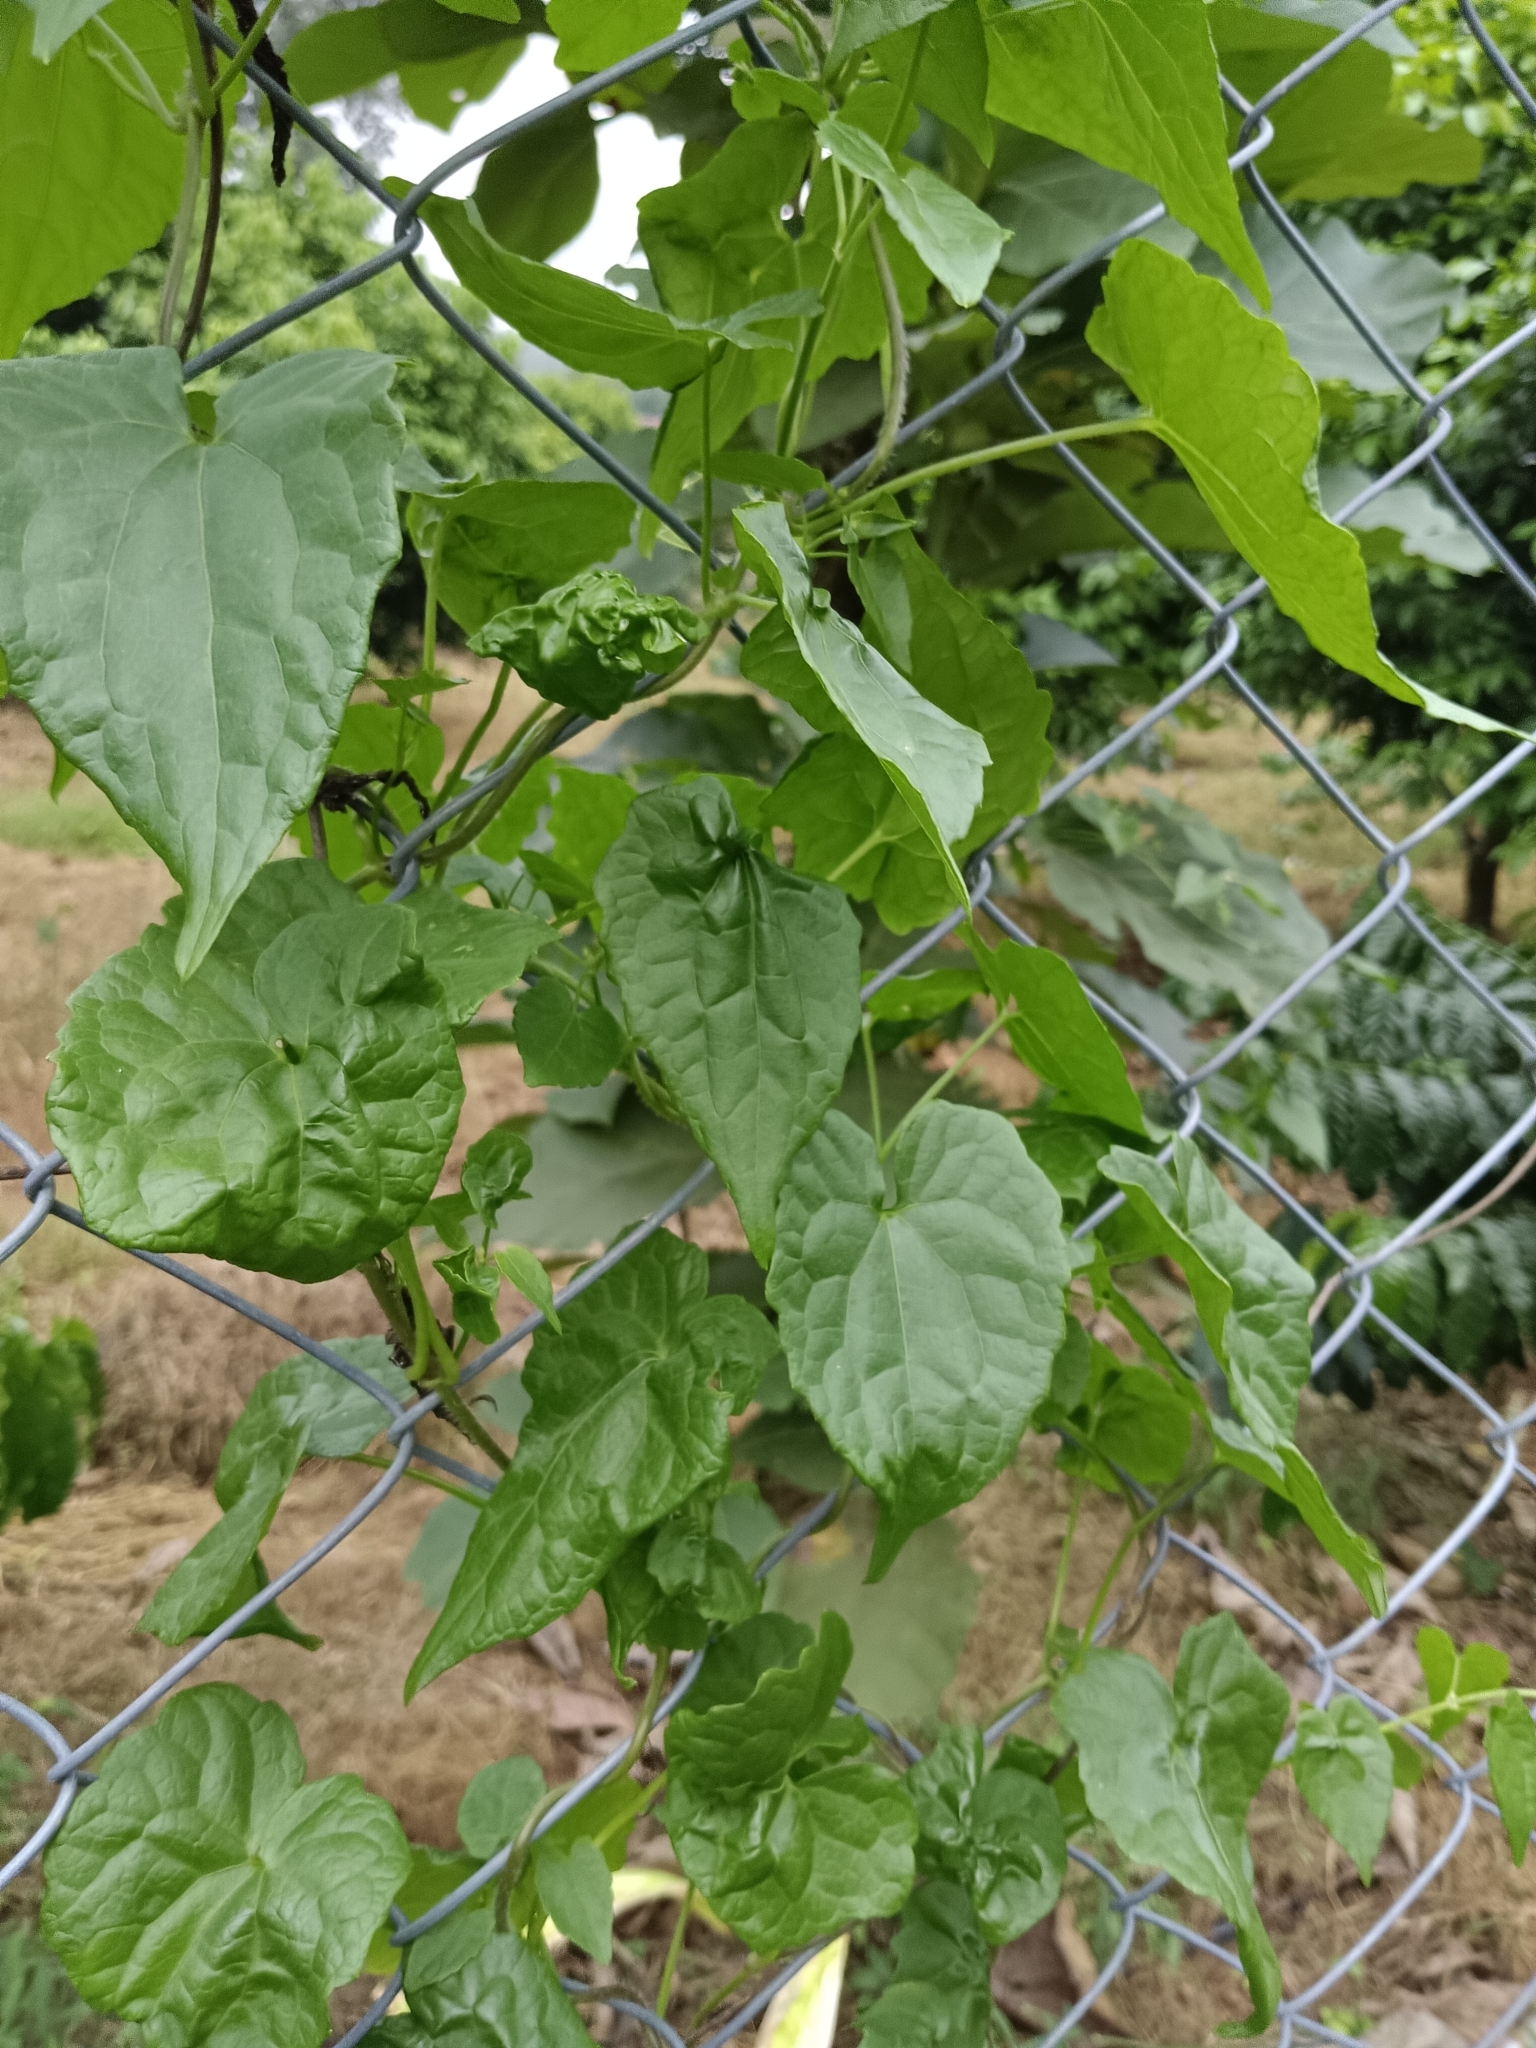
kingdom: Plantae
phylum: Tracheophyta
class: Magnoliopsida
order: Asterales
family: Asteraceae
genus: Mikania
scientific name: Mikania micrantha
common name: Mile-a-minute
